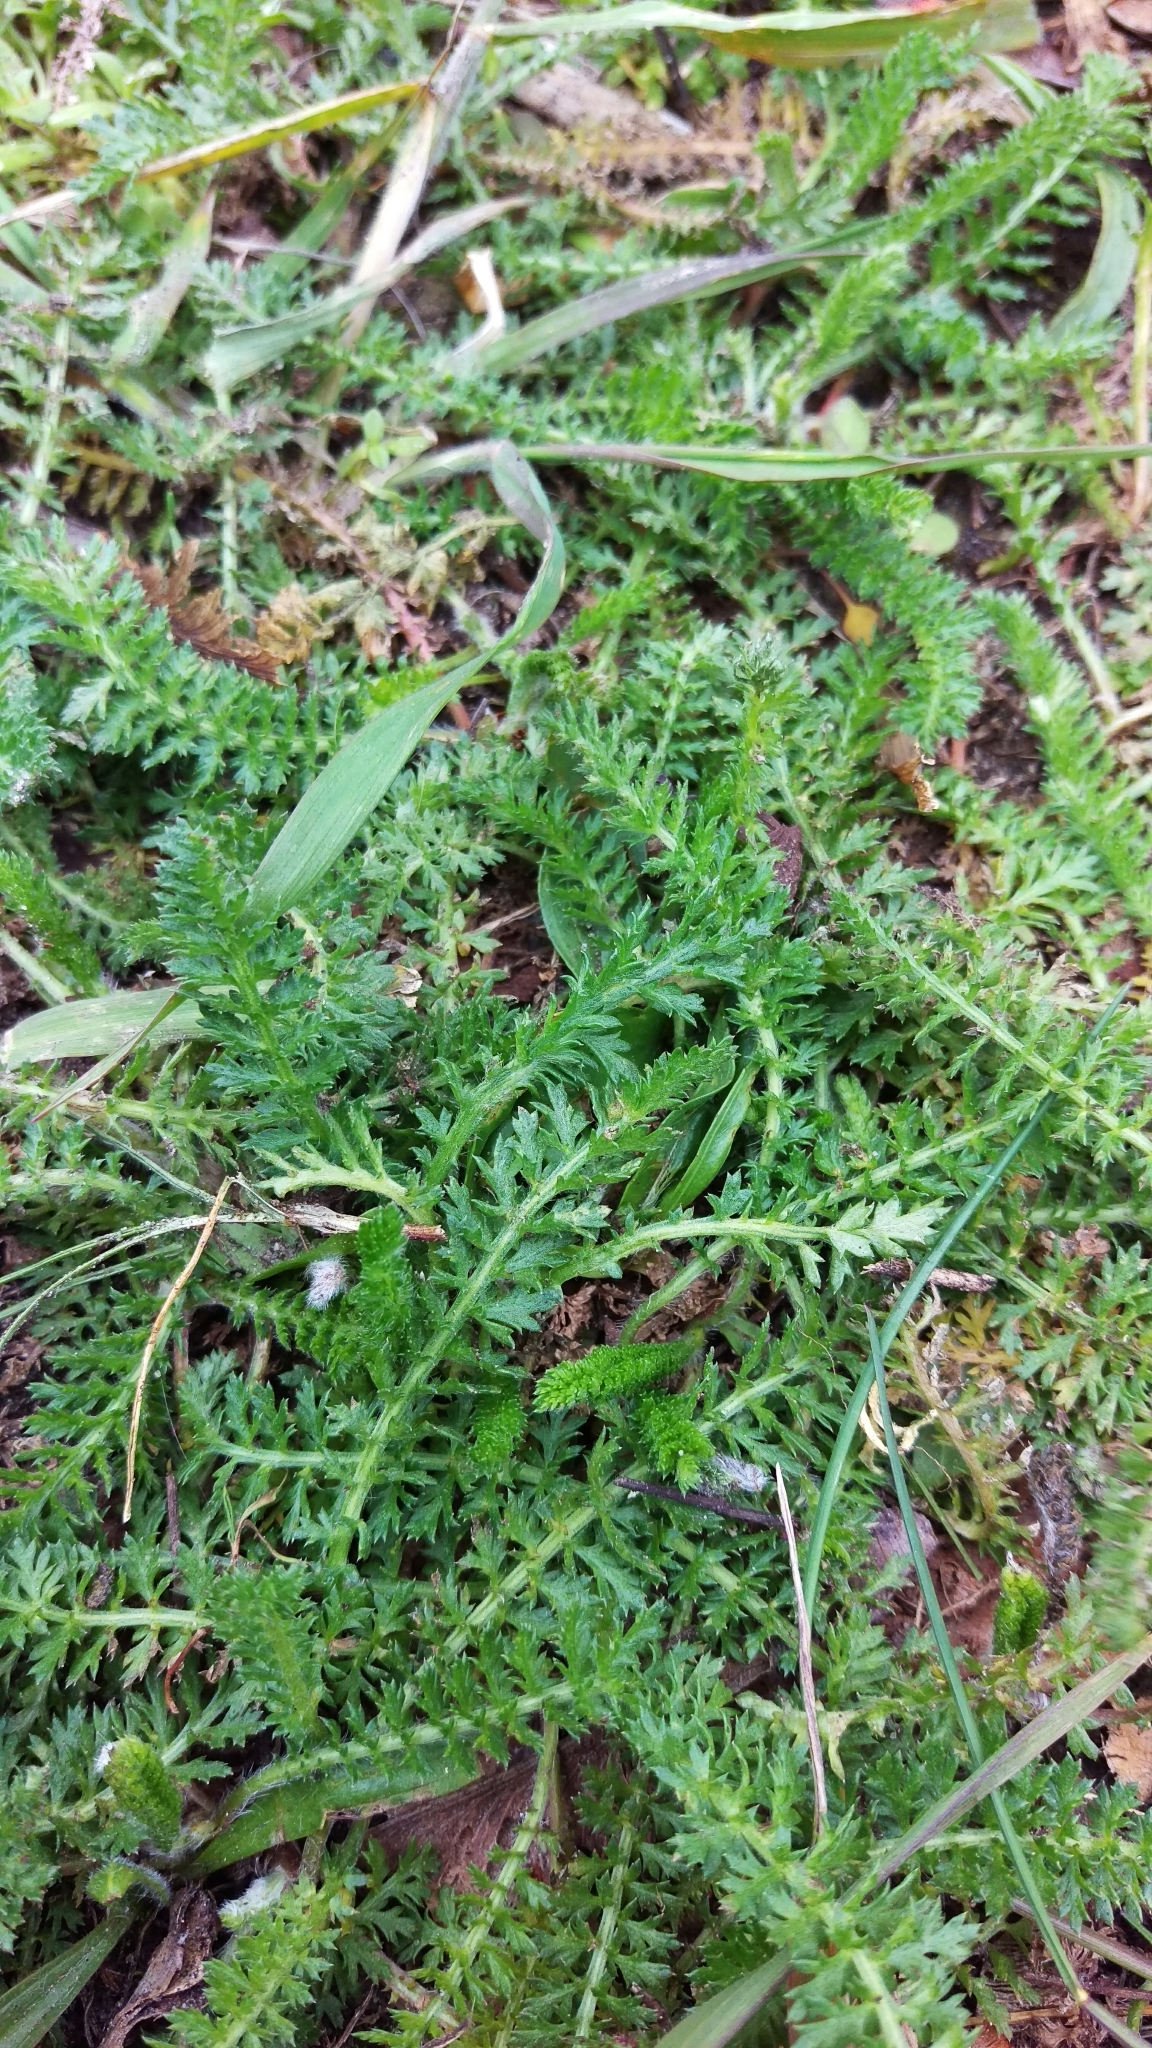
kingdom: Plantae
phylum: Tracheophyta
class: Magnoliopsida
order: Asterales
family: Asteraceae
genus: Achillea
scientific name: Achillea millefolium
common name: Yarrow
